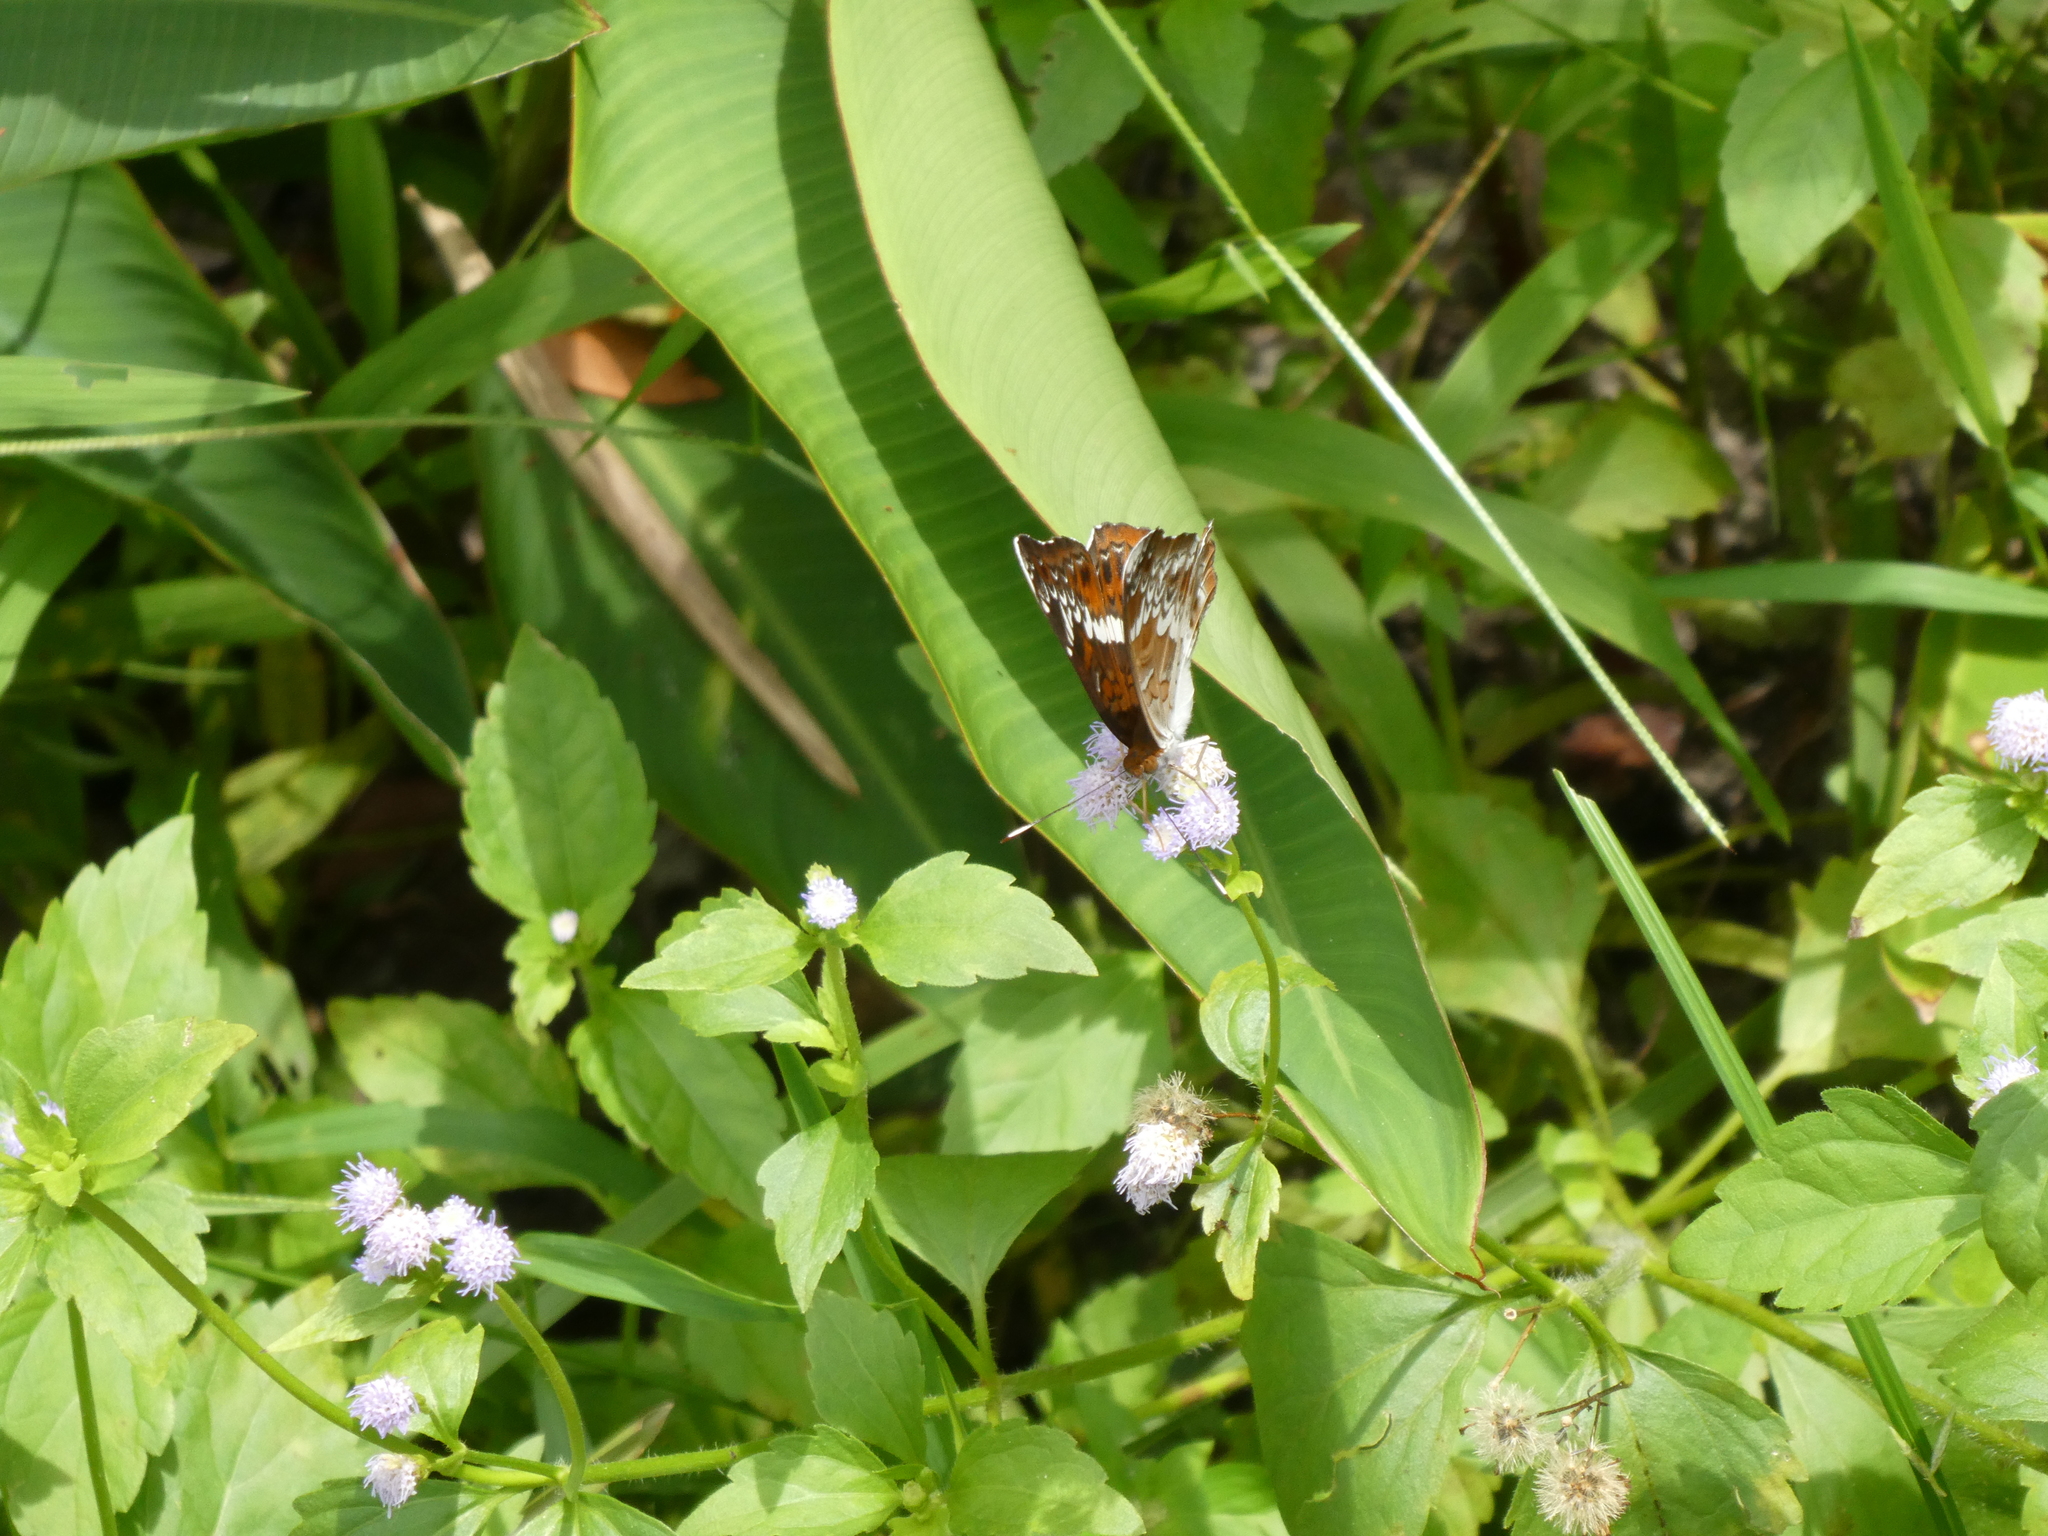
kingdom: Animalia
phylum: Arthropoda
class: Insecta
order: Lepidoptera
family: Nymphalidae
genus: Lebadea
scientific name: Lebadea martha
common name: Knight
